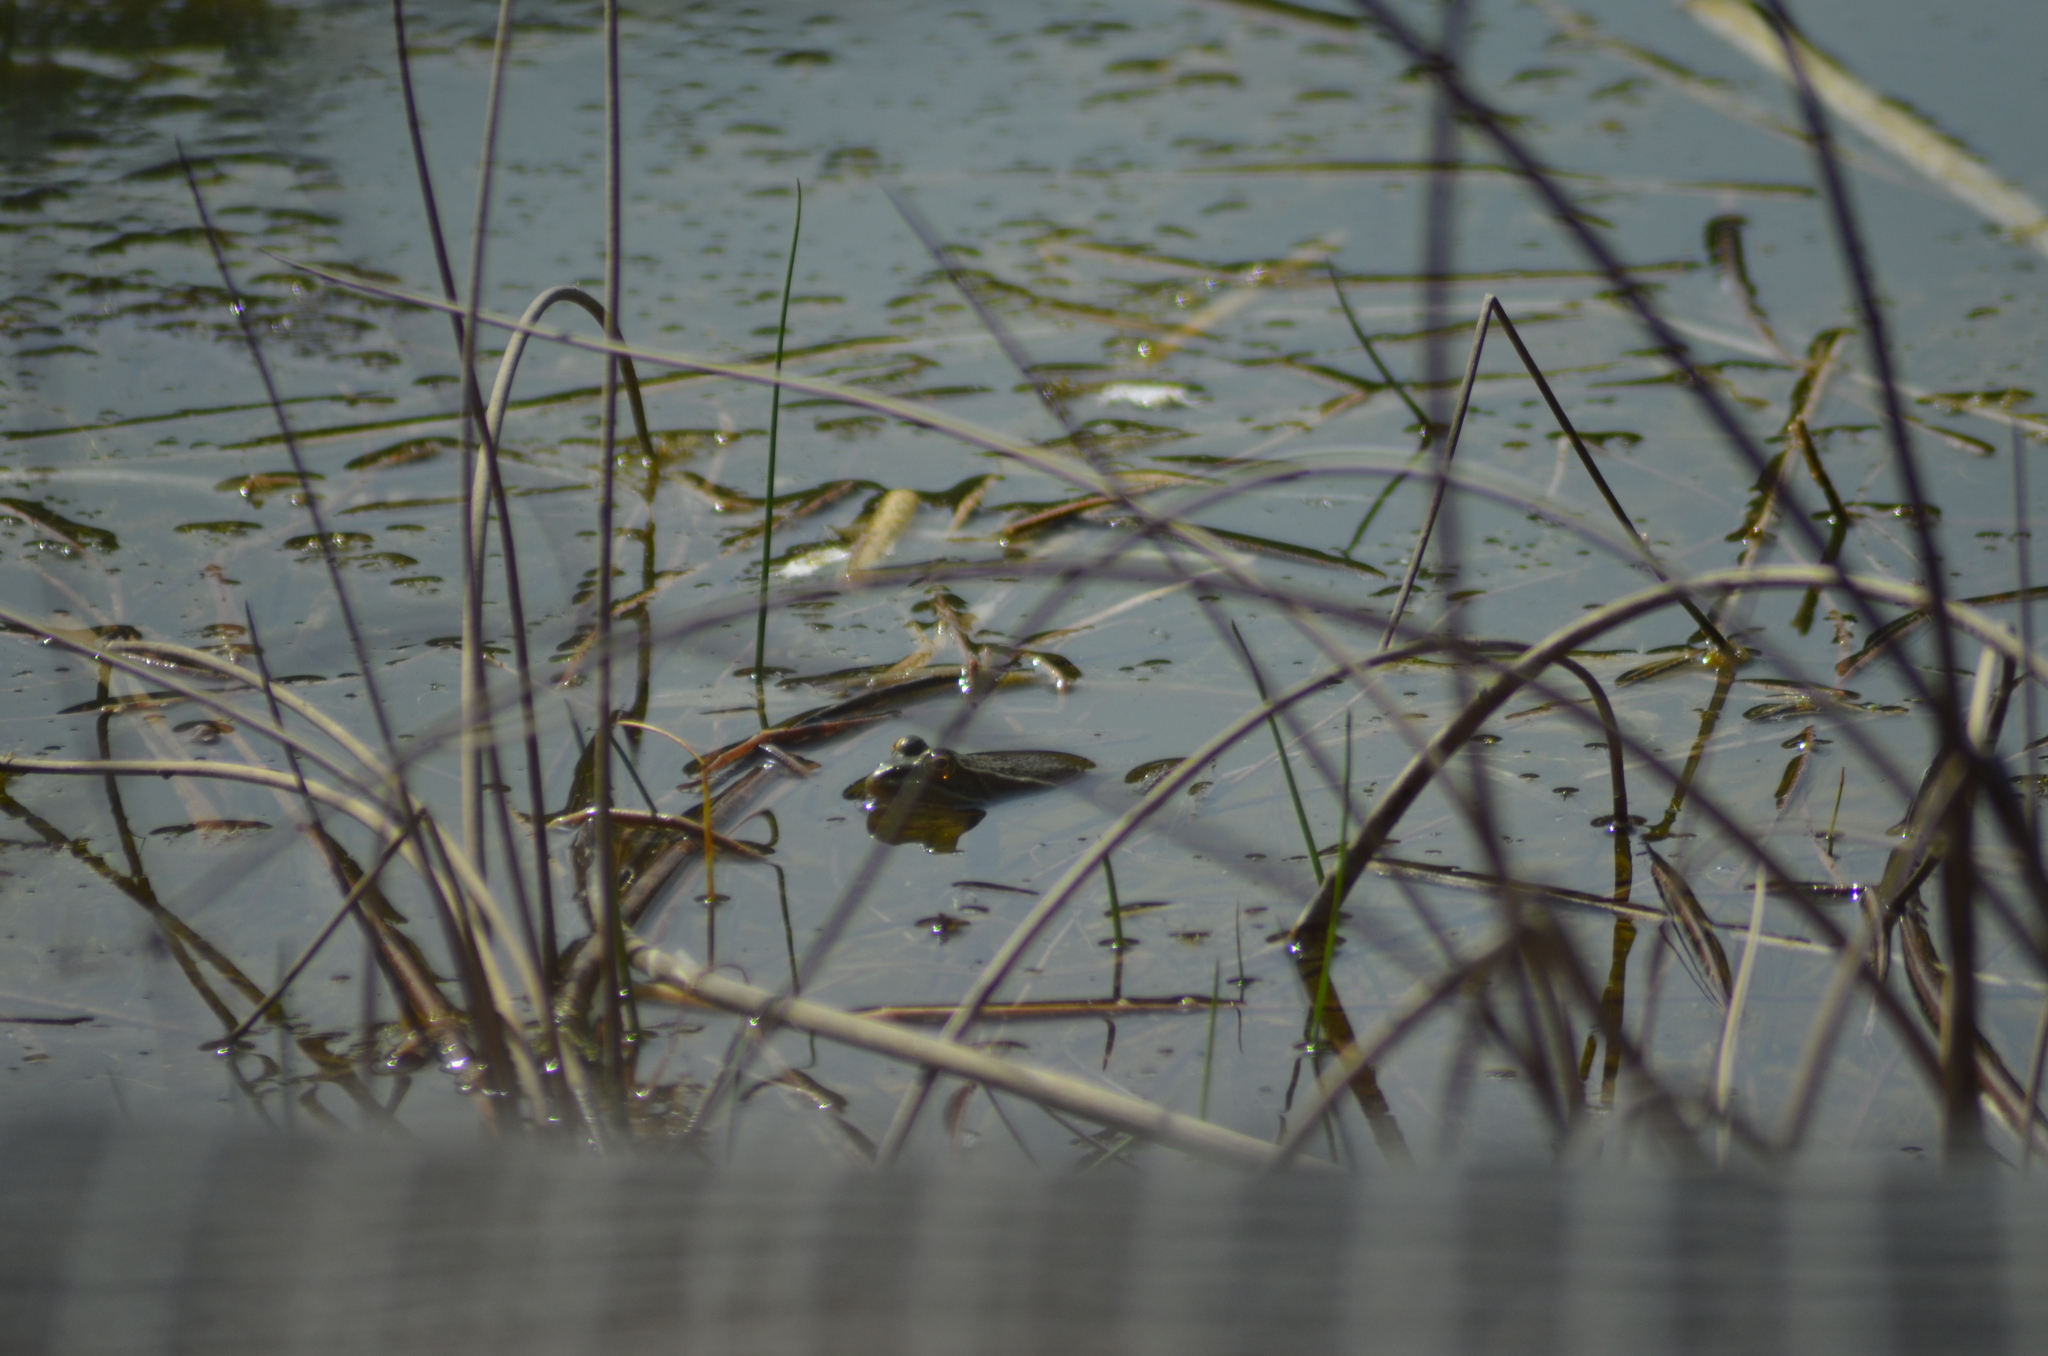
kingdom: Animalia
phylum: Chordata
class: Amphibia
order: Anura
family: Ranidae
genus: Pelophylax
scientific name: Pelophylax
